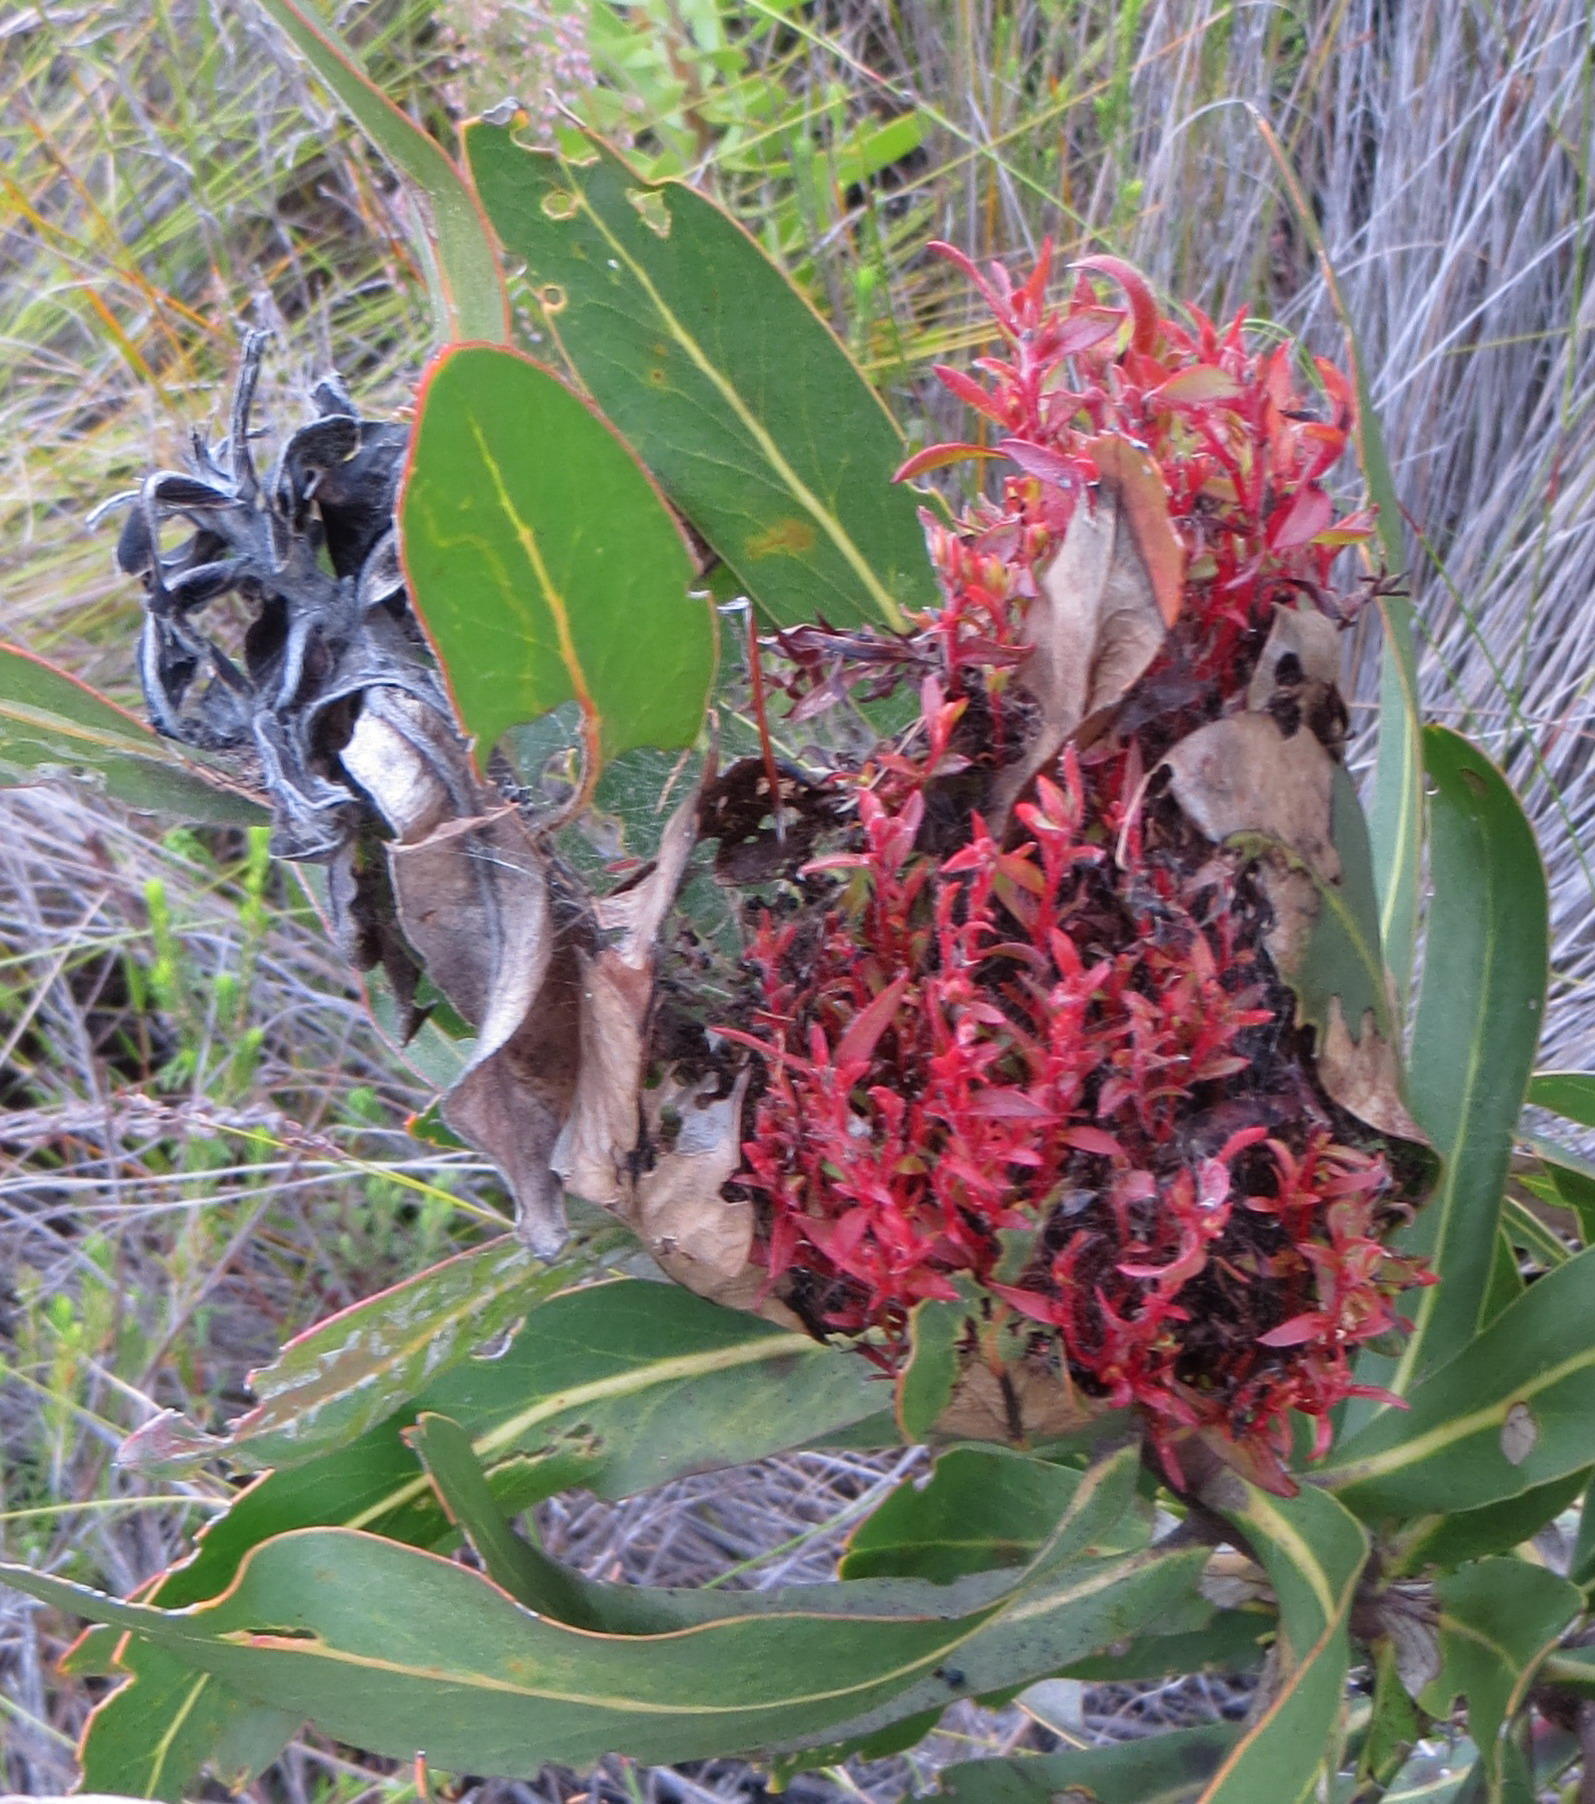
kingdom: Bacteria
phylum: Firmicutes
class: Bacilli
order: Acholeplasmatales
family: Acholeplasmataceae
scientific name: Acholeplasmataceae
